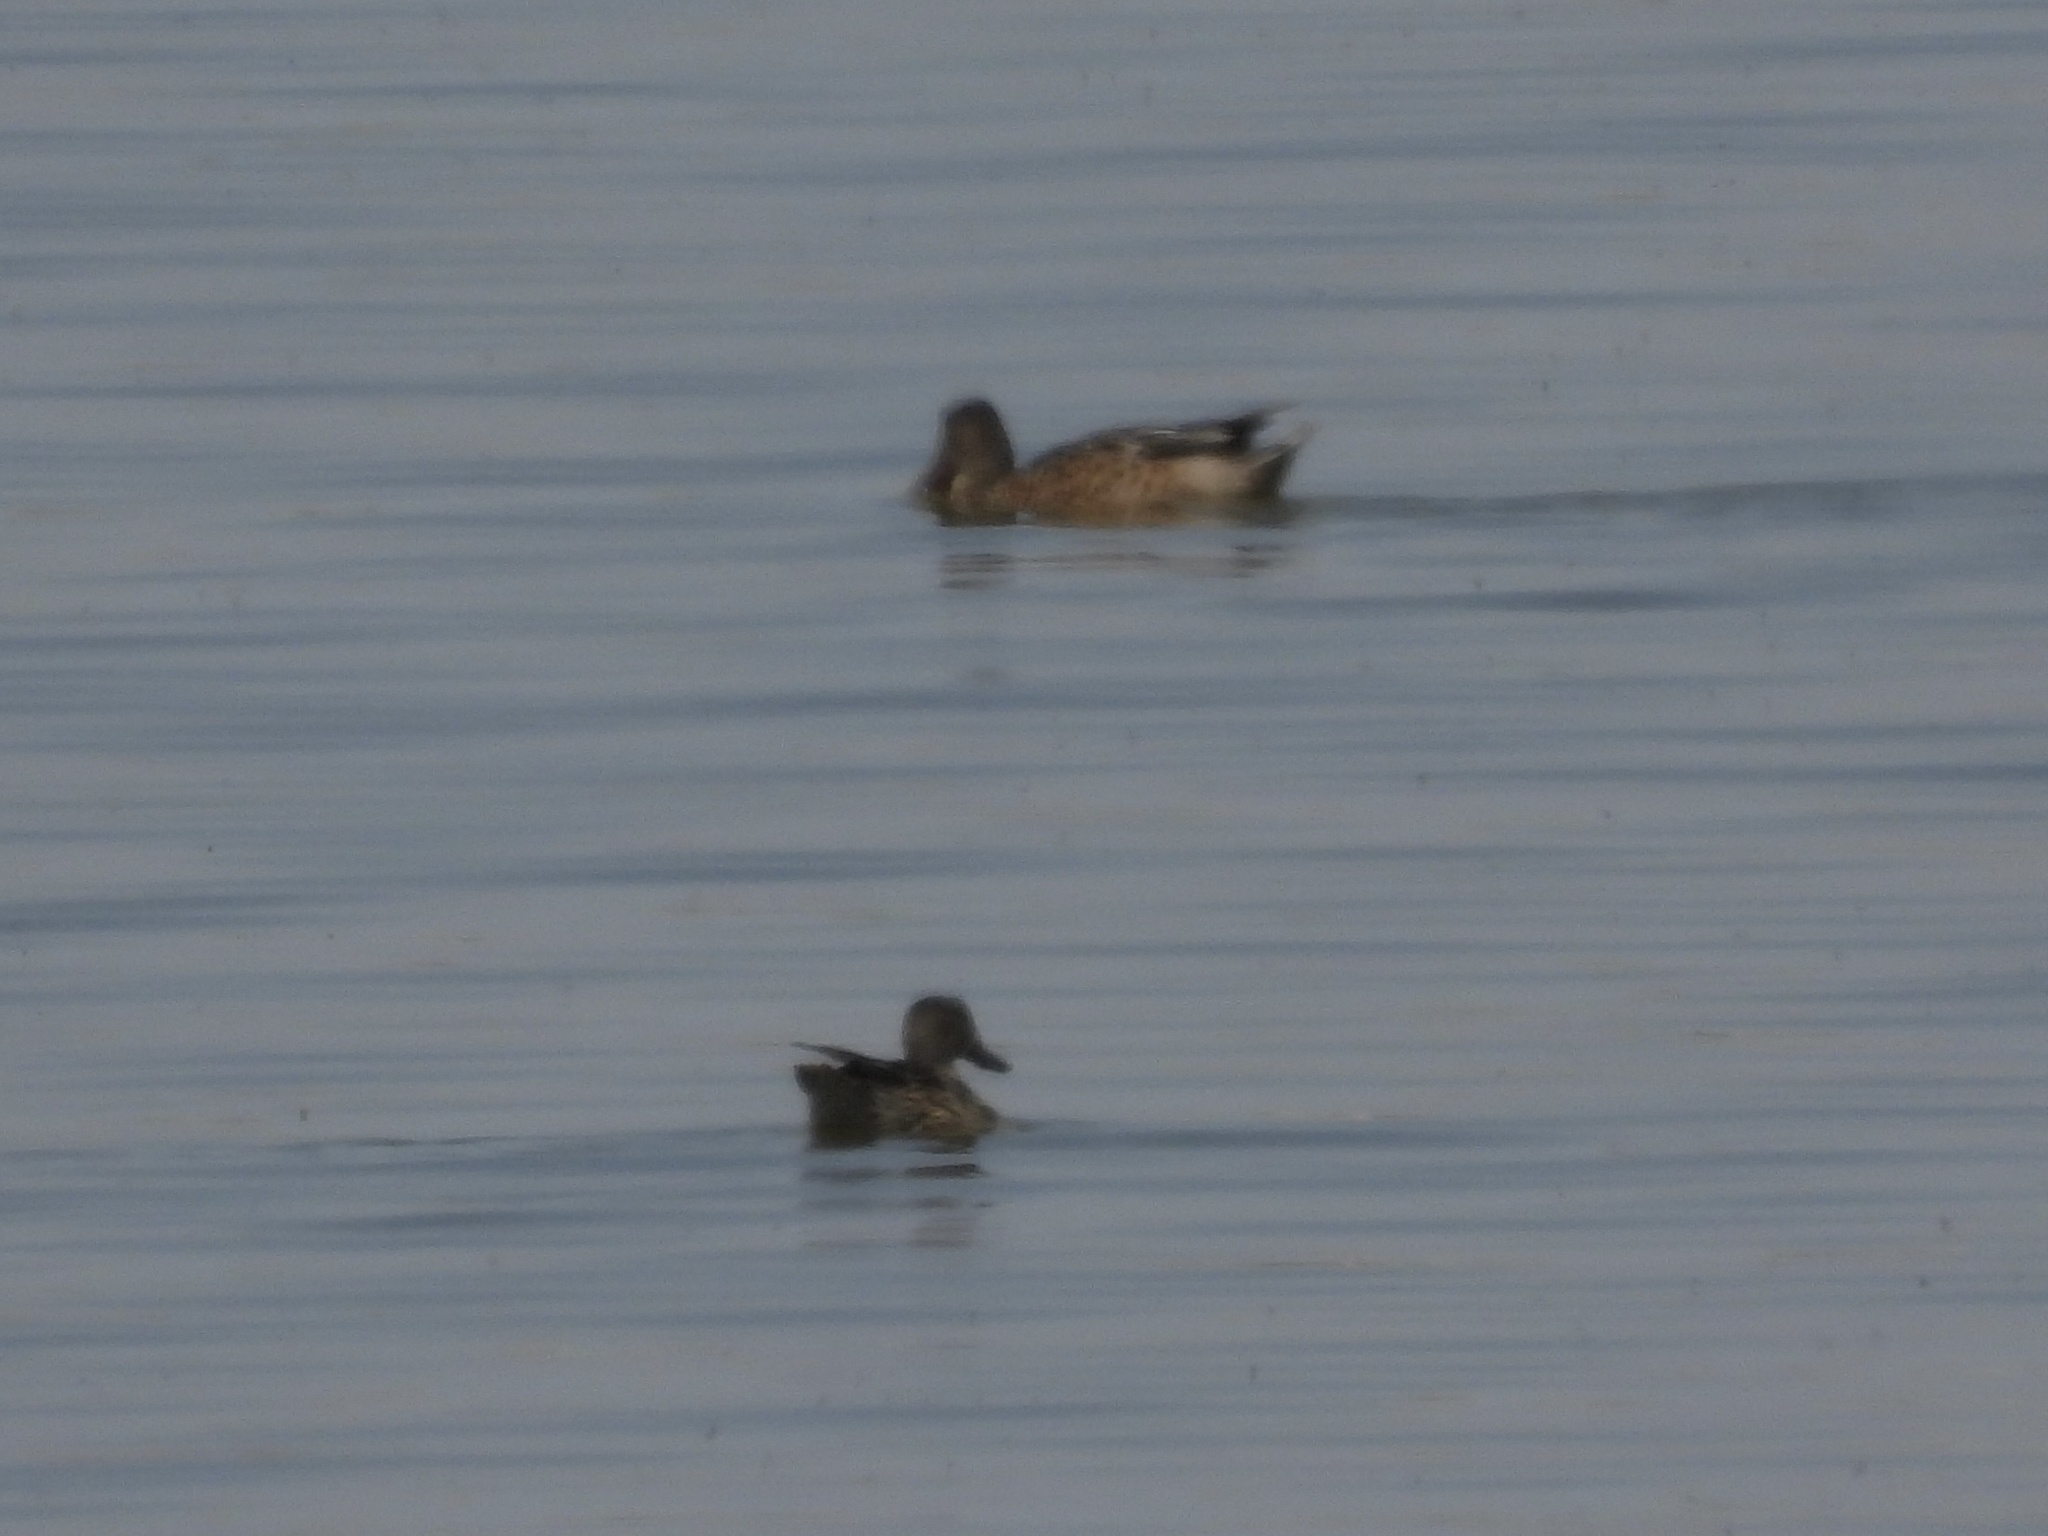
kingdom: Animalia
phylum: Chordata
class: Aves
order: Anseriformes
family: Anatidae
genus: Spatula
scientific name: Spatula clypeata
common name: Northern shoveler
